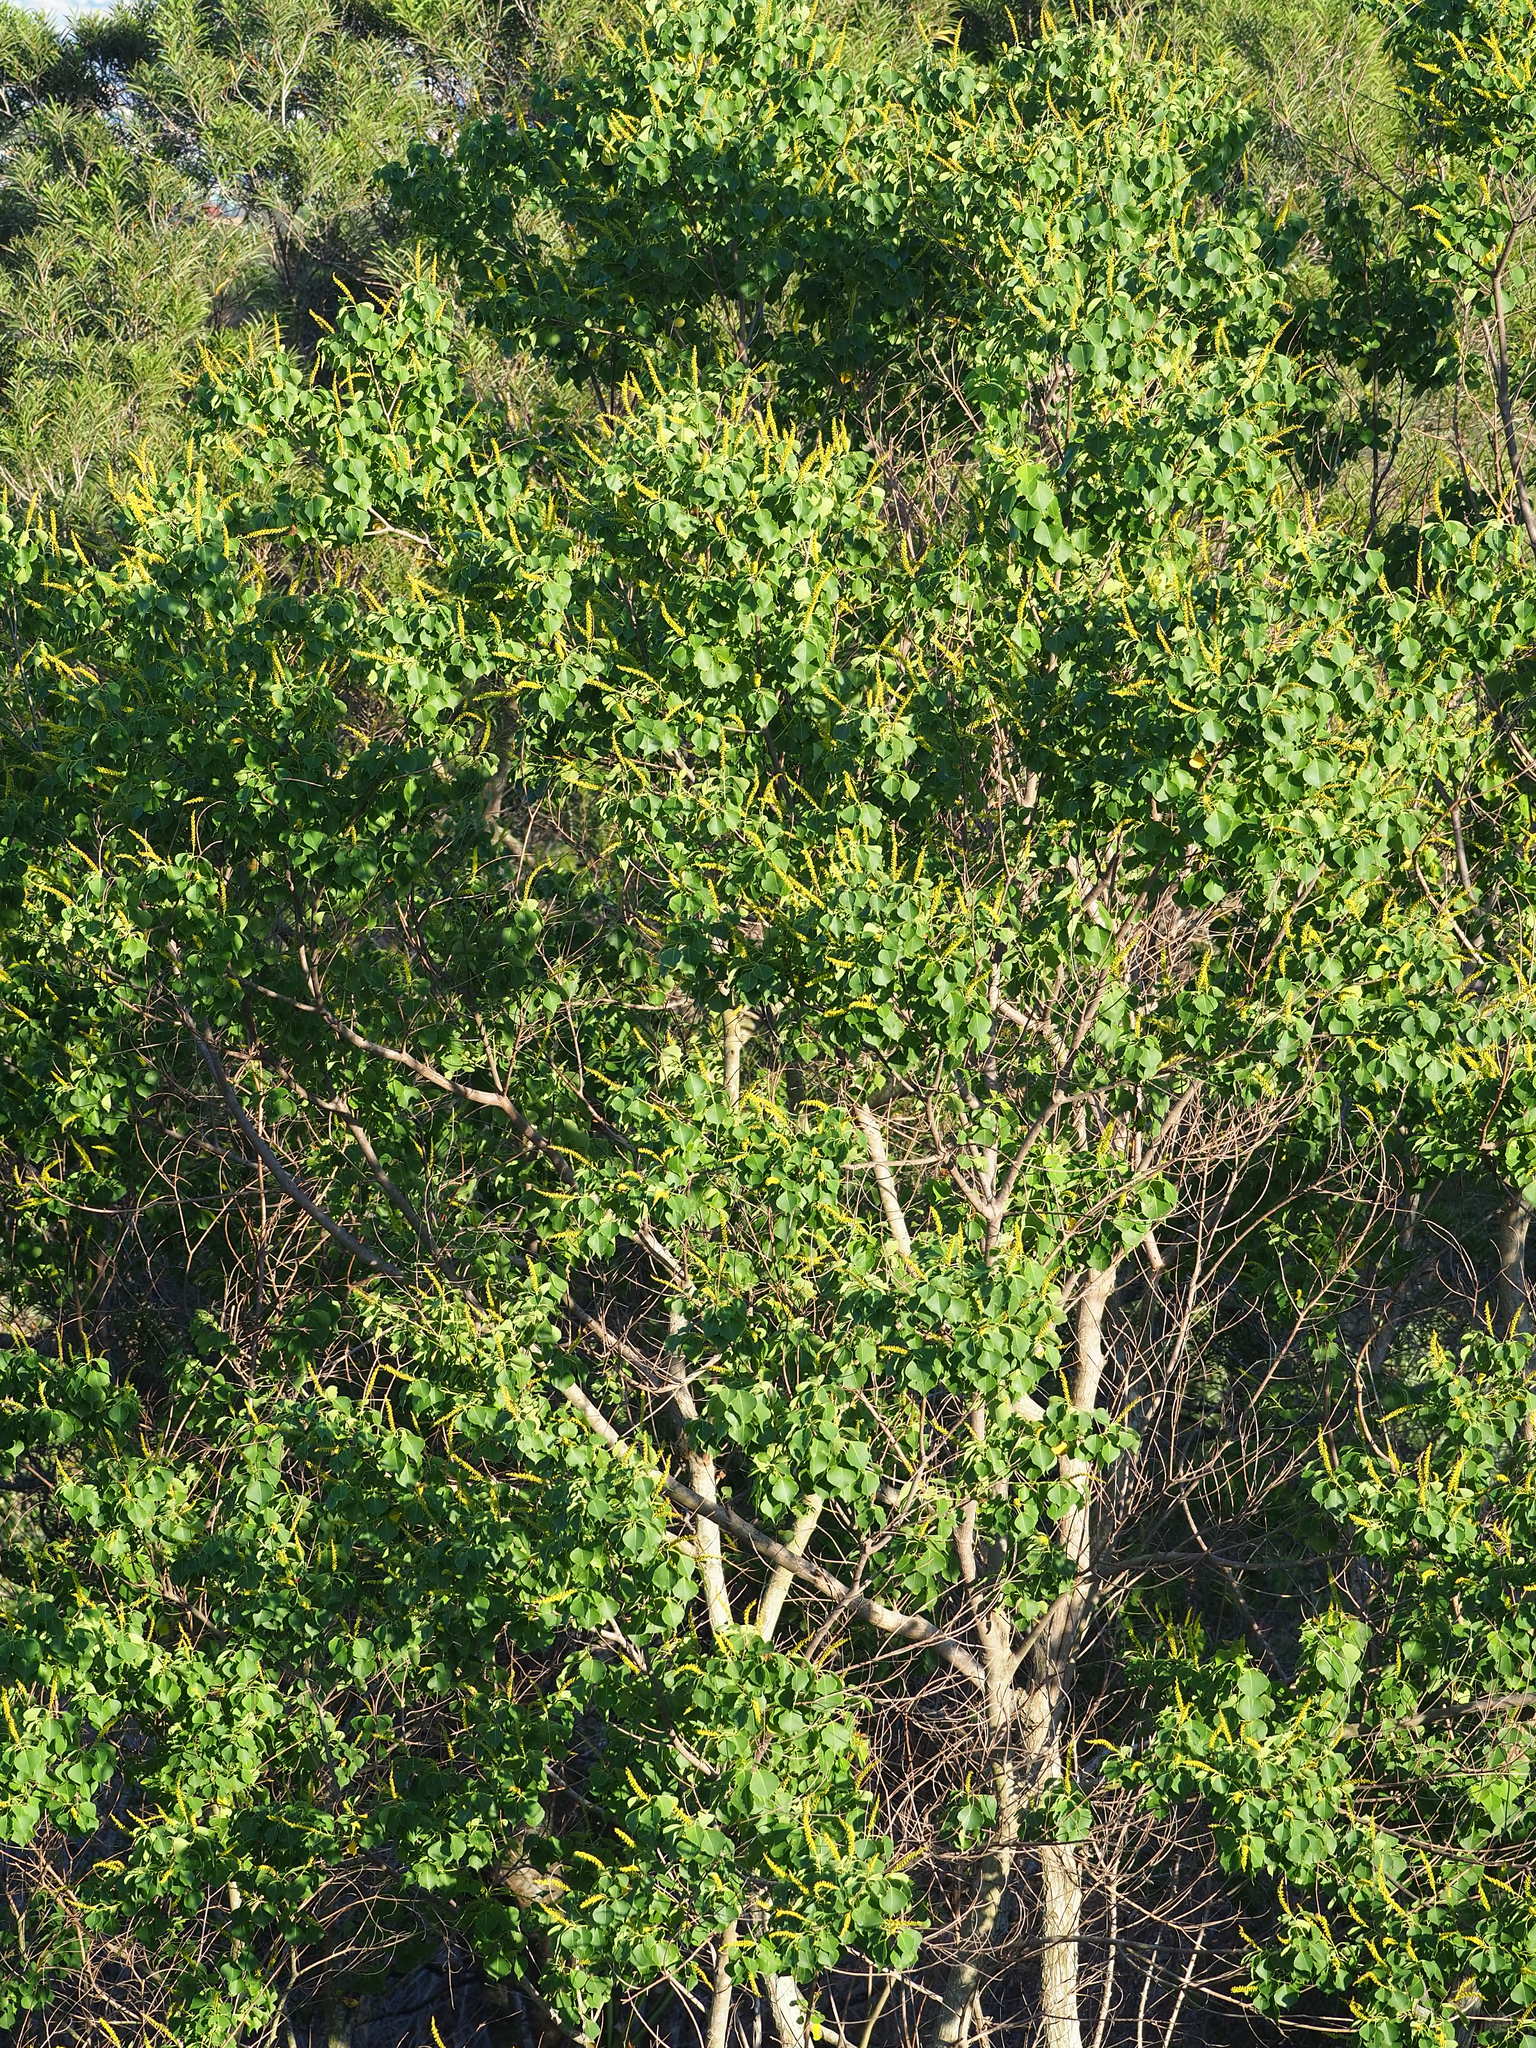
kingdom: Plantae
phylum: Tracheophyta
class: Magnoliopsida
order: Malpighiales
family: Euphorbiaceae
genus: Triadica
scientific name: Triadica sebifera
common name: Chinese tallow
